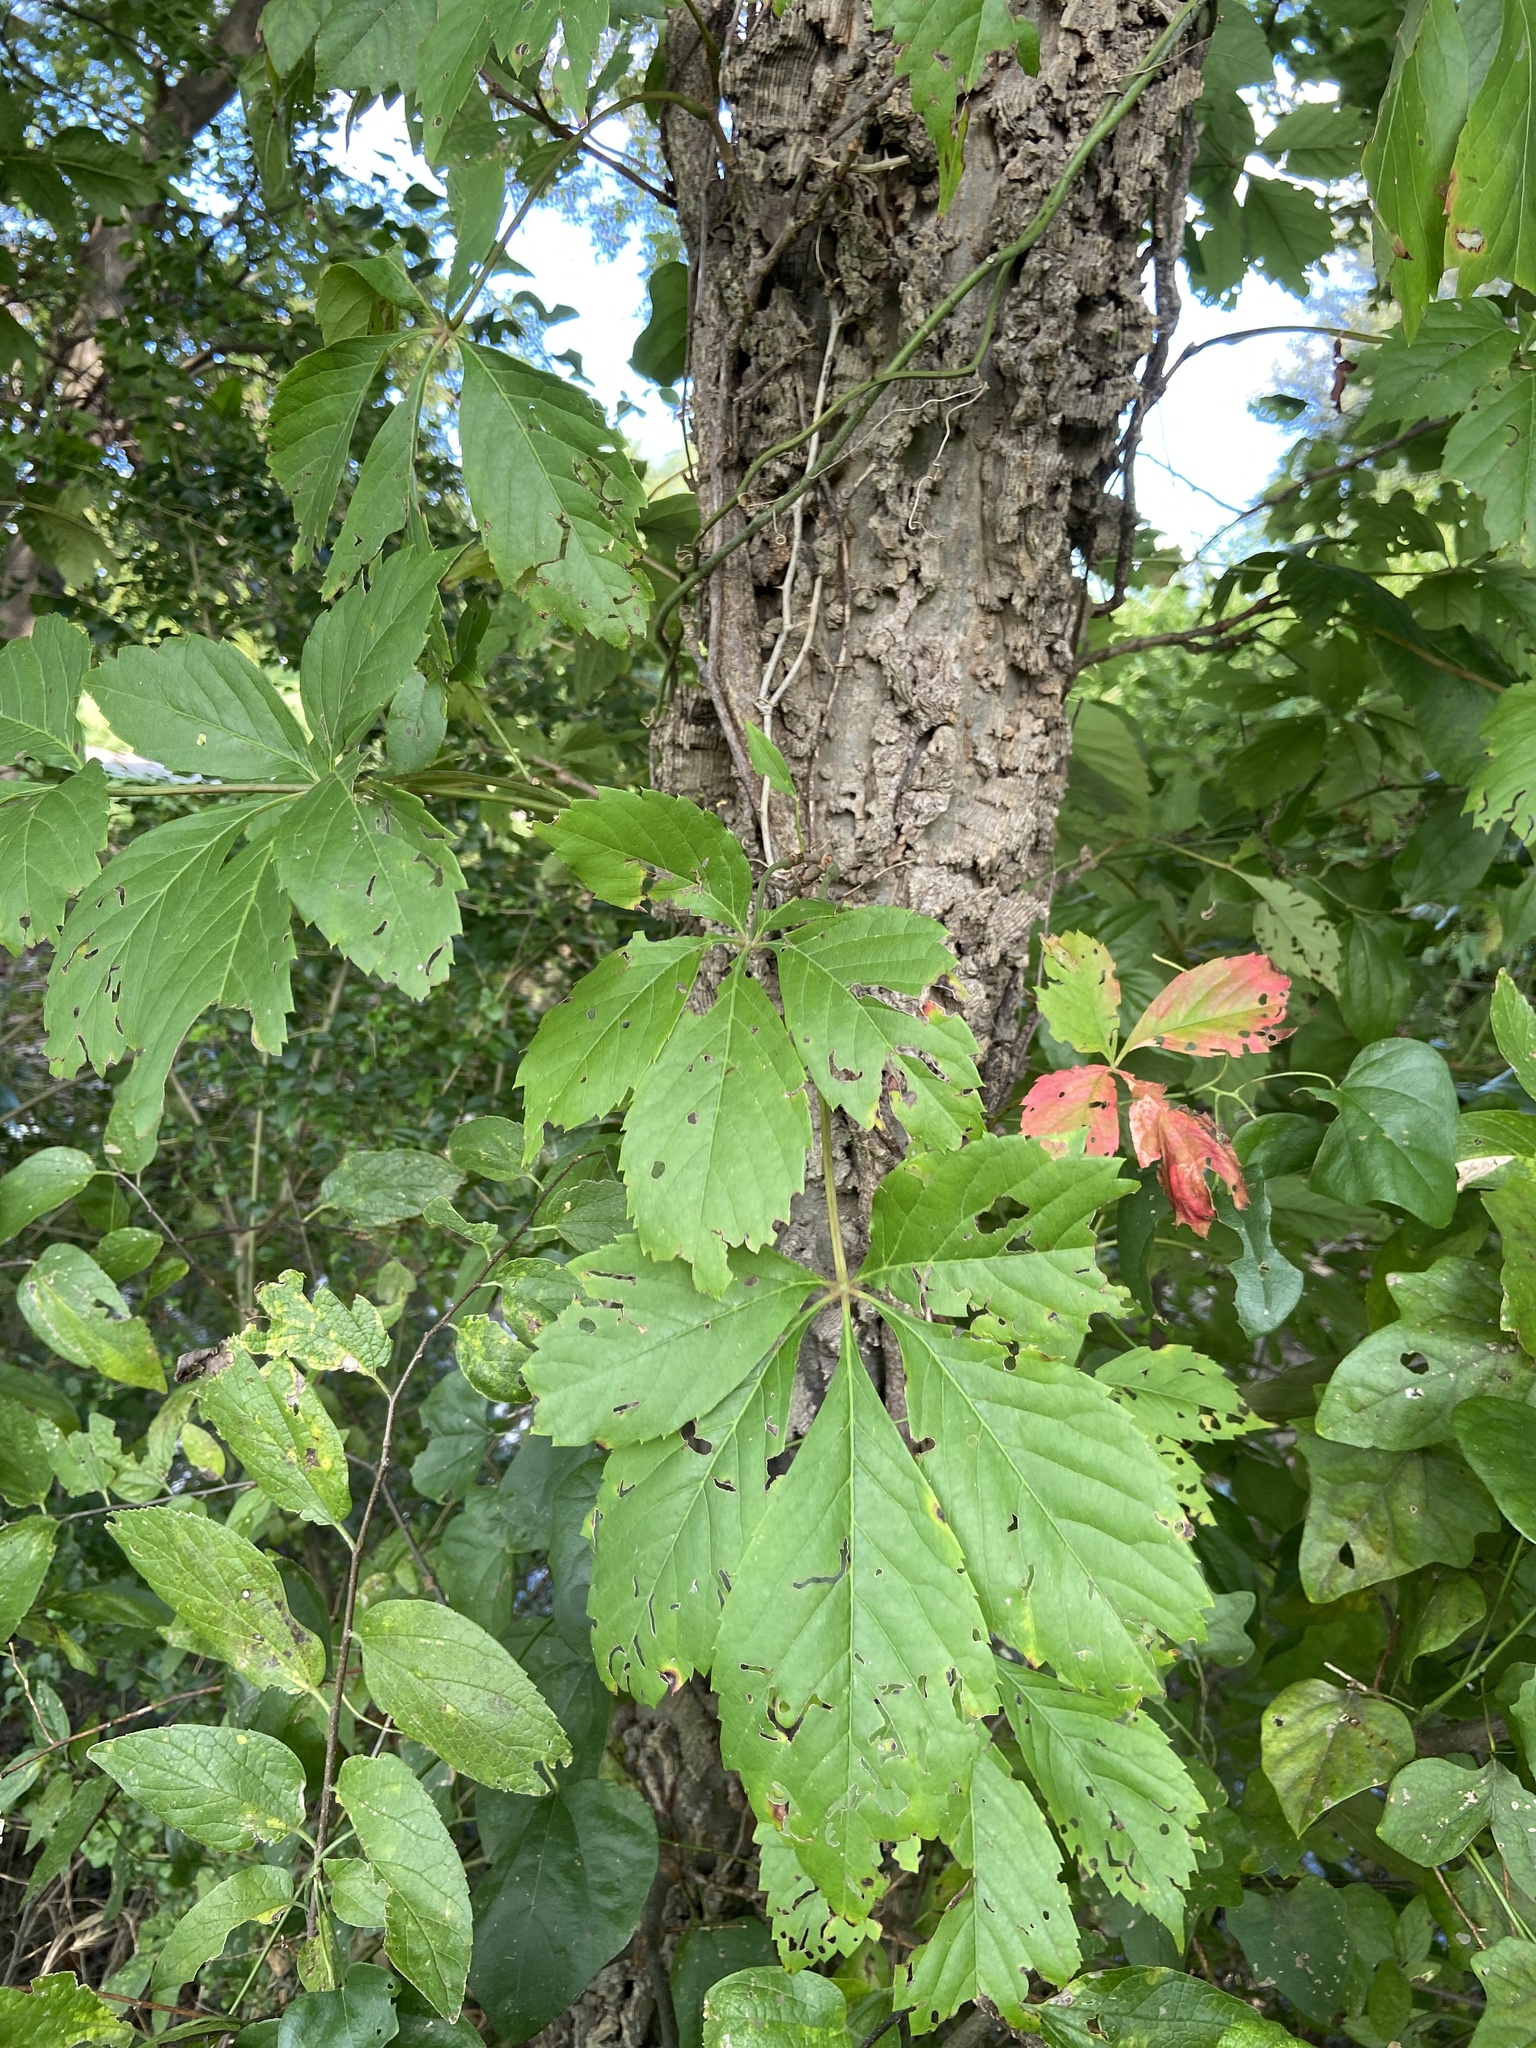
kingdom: Plantae
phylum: Tracheophyta
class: Magnoliopsida
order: Vitales
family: Vitaceae
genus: Parthenocissus
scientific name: Parthenocissus quinquefolia
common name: Virginia-creeper
